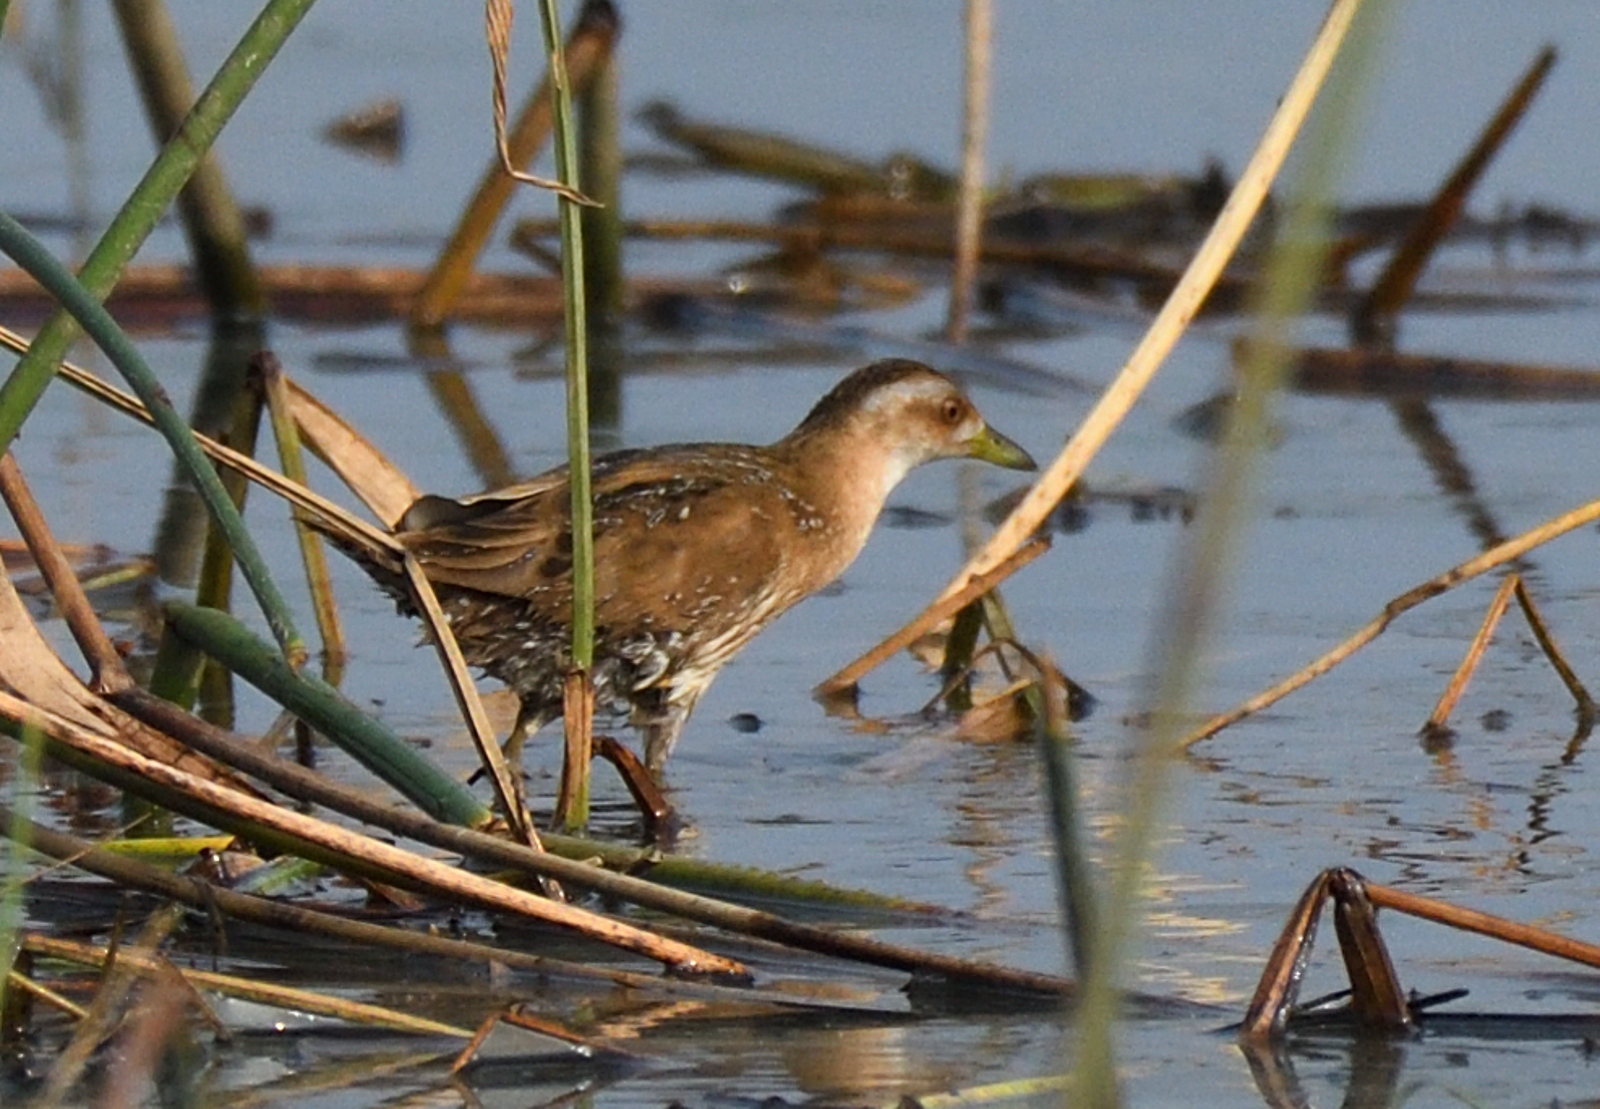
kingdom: Animalia
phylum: Chordata
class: Aves
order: Gruiformes
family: Rallidae
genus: Porzana
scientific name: Porzana pusilla
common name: Baillon's crake
